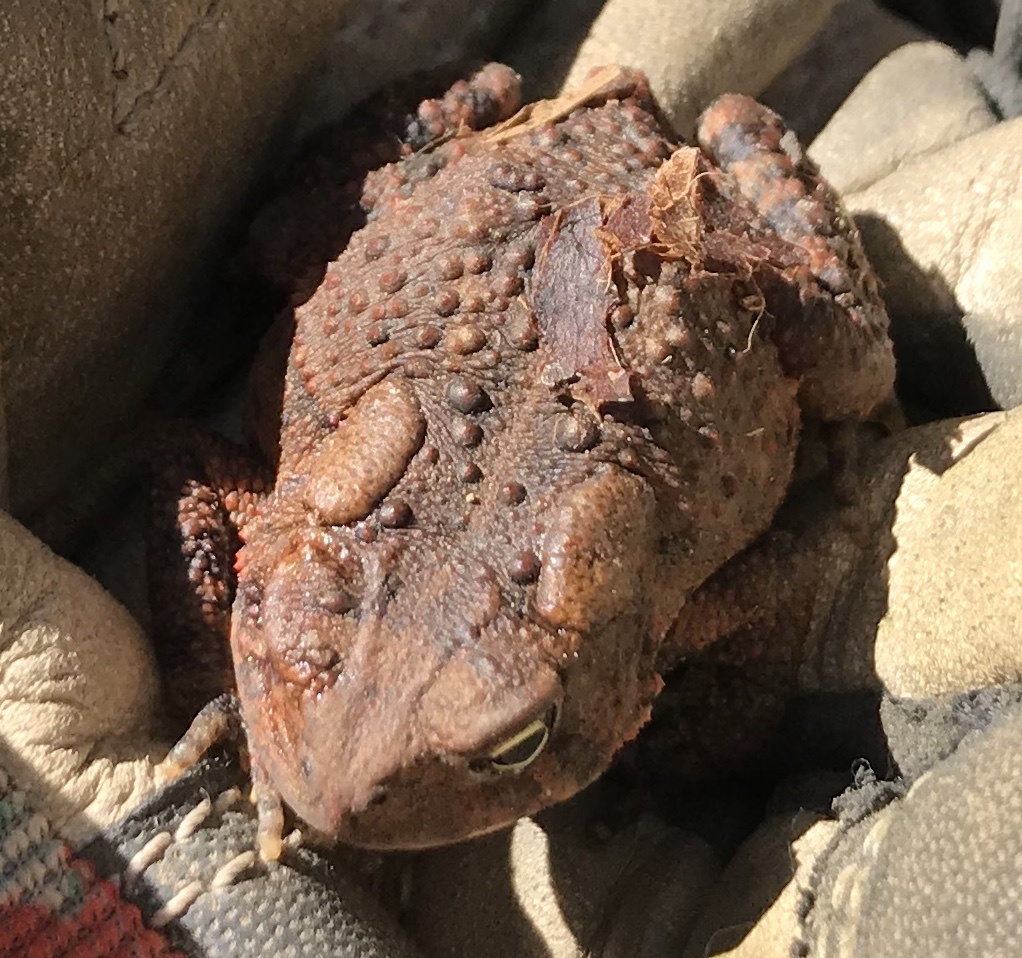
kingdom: Animalia
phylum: Chordata
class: Amphibia
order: Anura
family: Bufonidae
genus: Anaxyrus
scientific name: Anaxyrus americanus
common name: American toad
